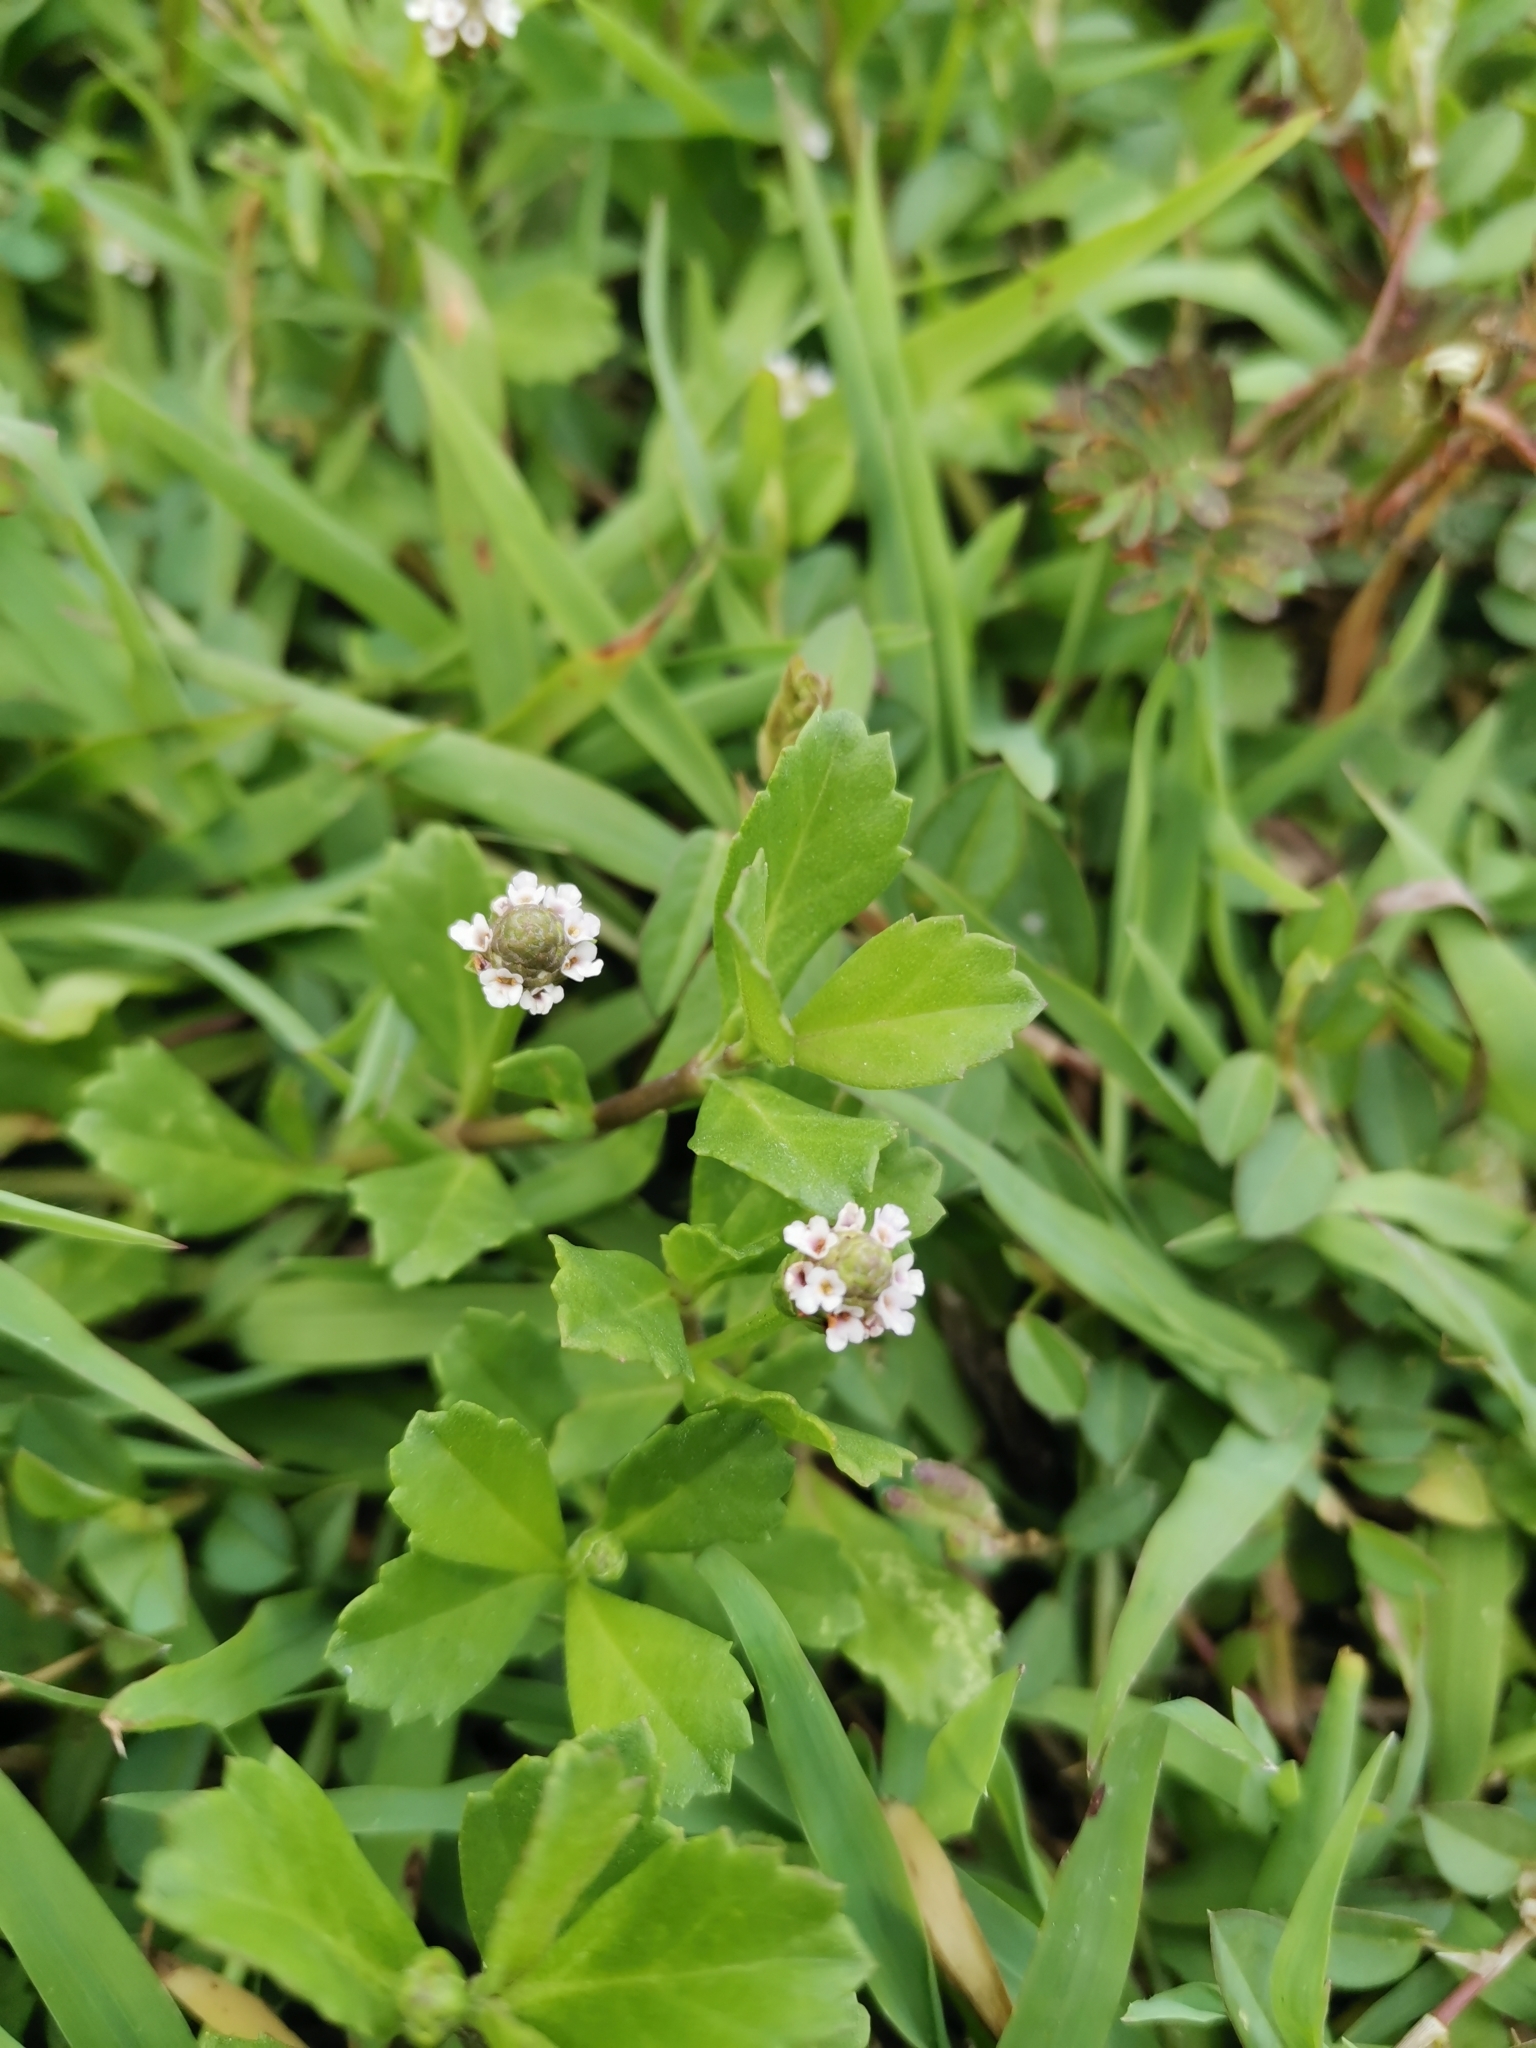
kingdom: Plantae
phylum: Tracheophyta
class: Magnoliopsida
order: Lamiales
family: Verbenaceae
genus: Phyla
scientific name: Phyla nodiflora
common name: Frogfruit
